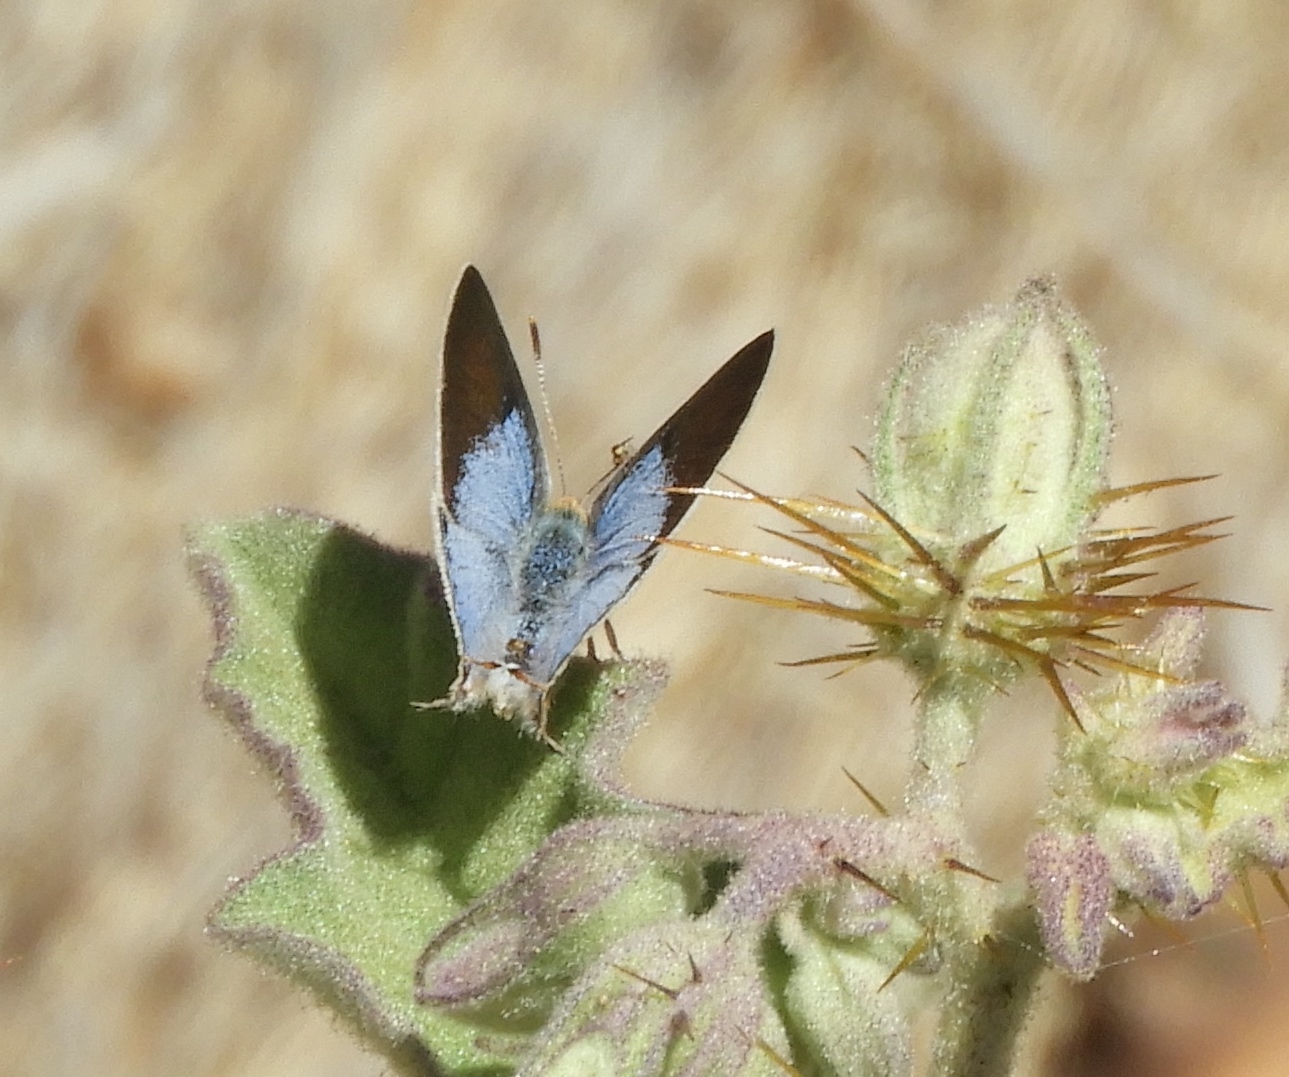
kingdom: Animalia
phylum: Arthropoda
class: Insecta
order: Lepidoptera
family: Lycaenidae
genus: Dolymorpha
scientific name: Dolymorpha jada
